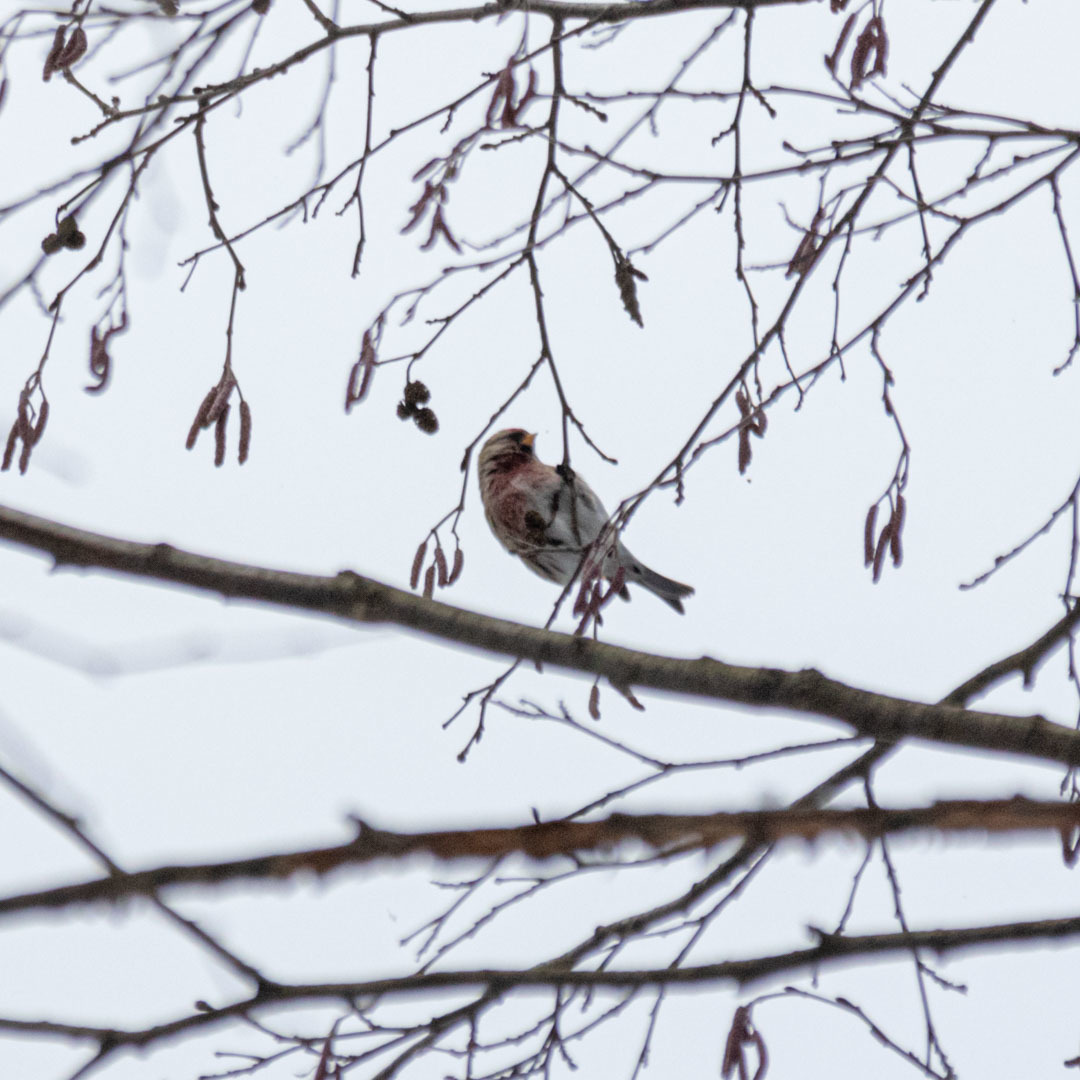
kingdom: Animalia
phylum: Chordata
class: Aves
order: Passeriformes
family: Fringillidae
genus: Acanthis
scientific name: Acanthis flammea
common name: Common redpoll
